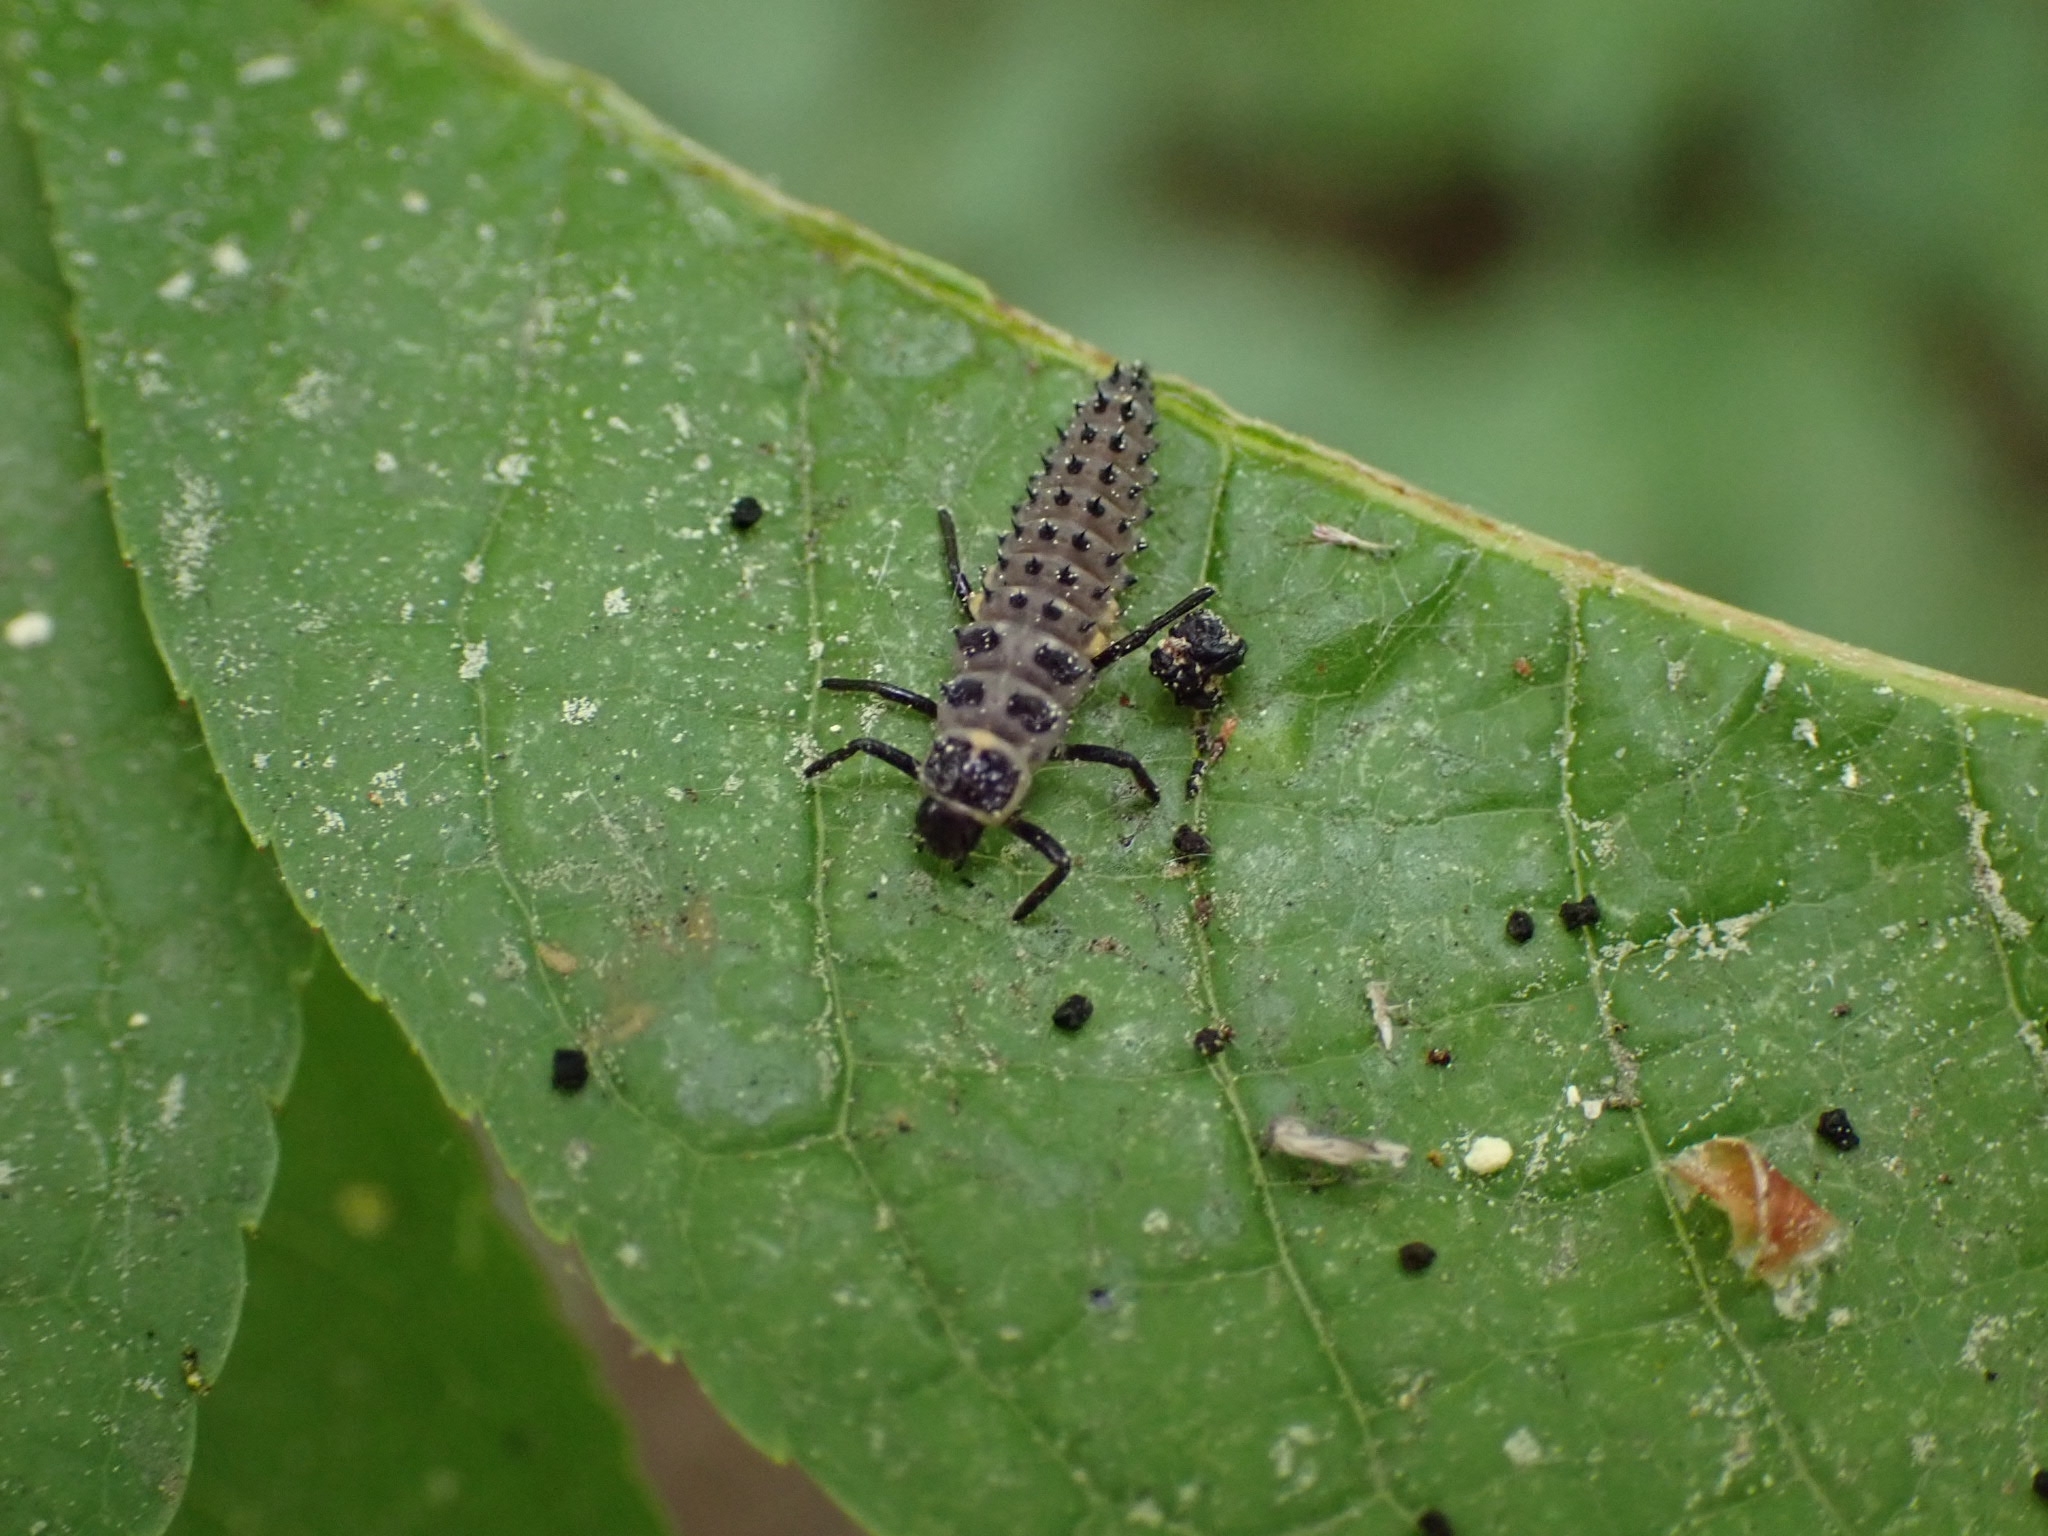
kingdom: Animalia
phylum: Arthropoda
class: Insecta
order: Coleoptera
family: Coccinellidae
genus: Anatis
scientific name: Anatis ocellata
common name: Eyed ladybird
